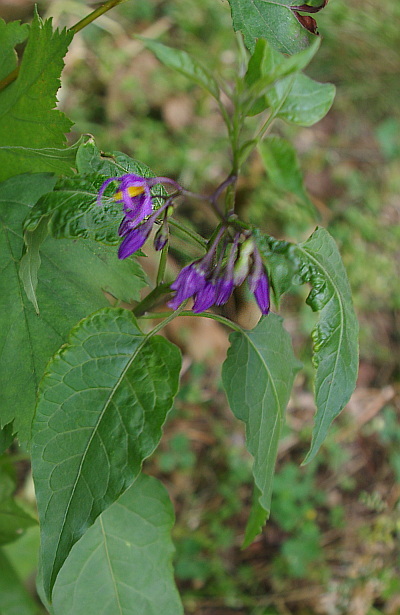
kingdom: Plantae
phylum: Tracheophyta
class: Magnoliopsida
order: Solanales
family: Solanaceae
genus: Solanum
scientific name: Solanum dulcamara
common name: Climbing nightshade
